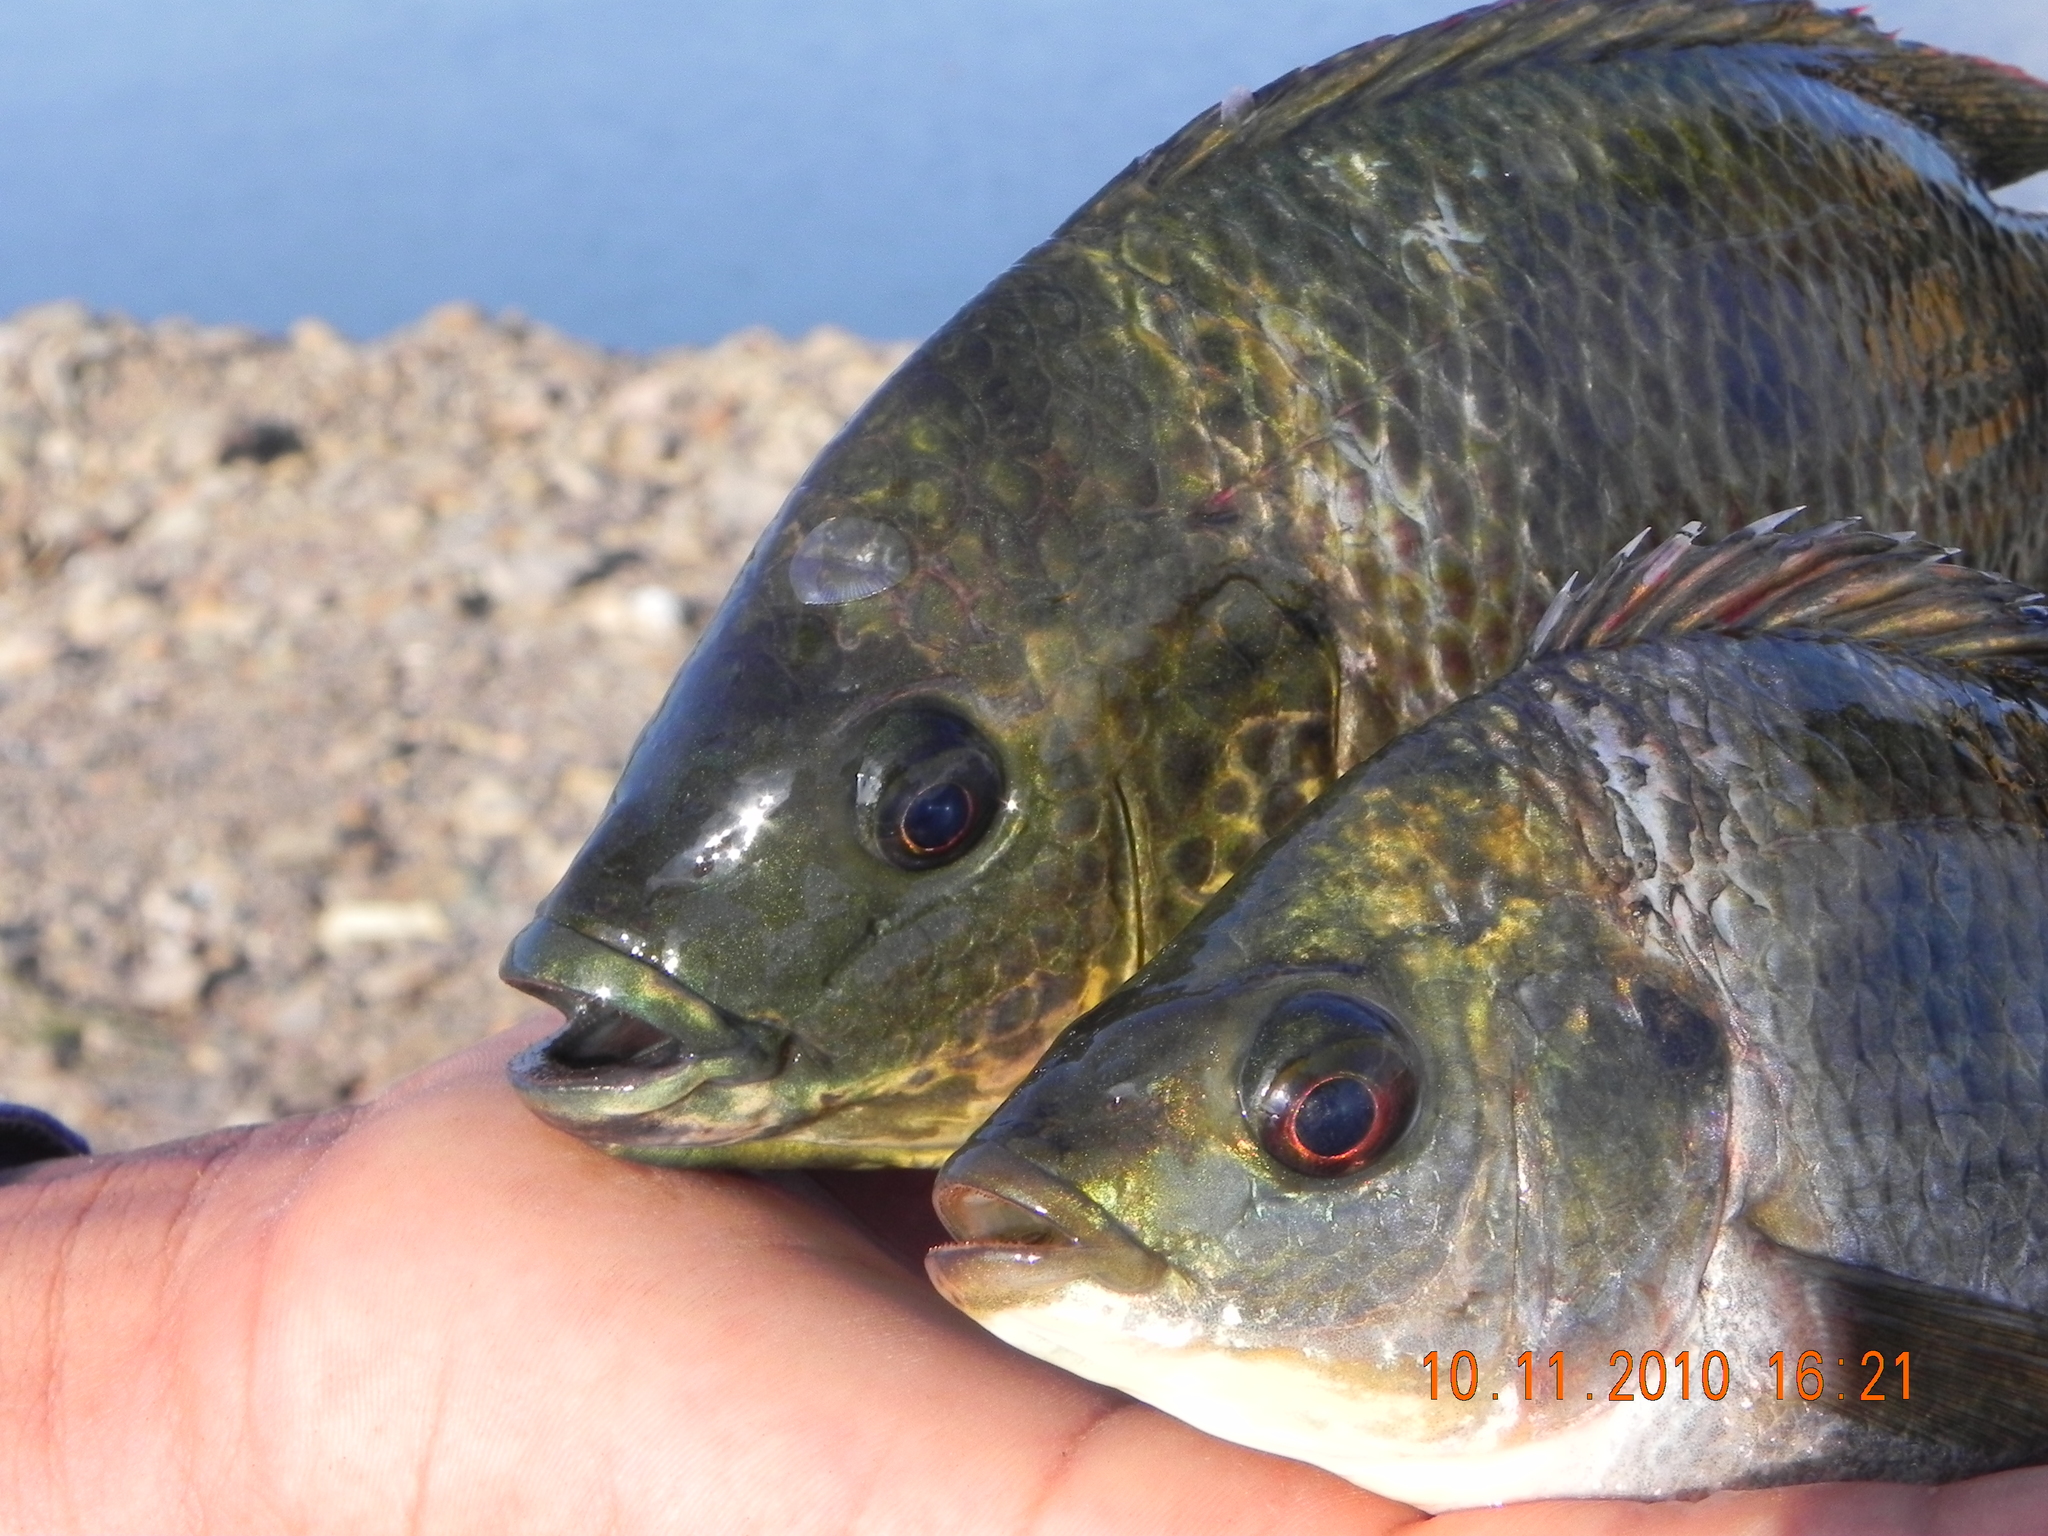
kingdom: Animalia
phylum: Chordata
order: Perciformes
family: Cichlidae
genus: Oreochromis
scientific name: Oreochromis mossambicus
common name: Mozambique tilapia
